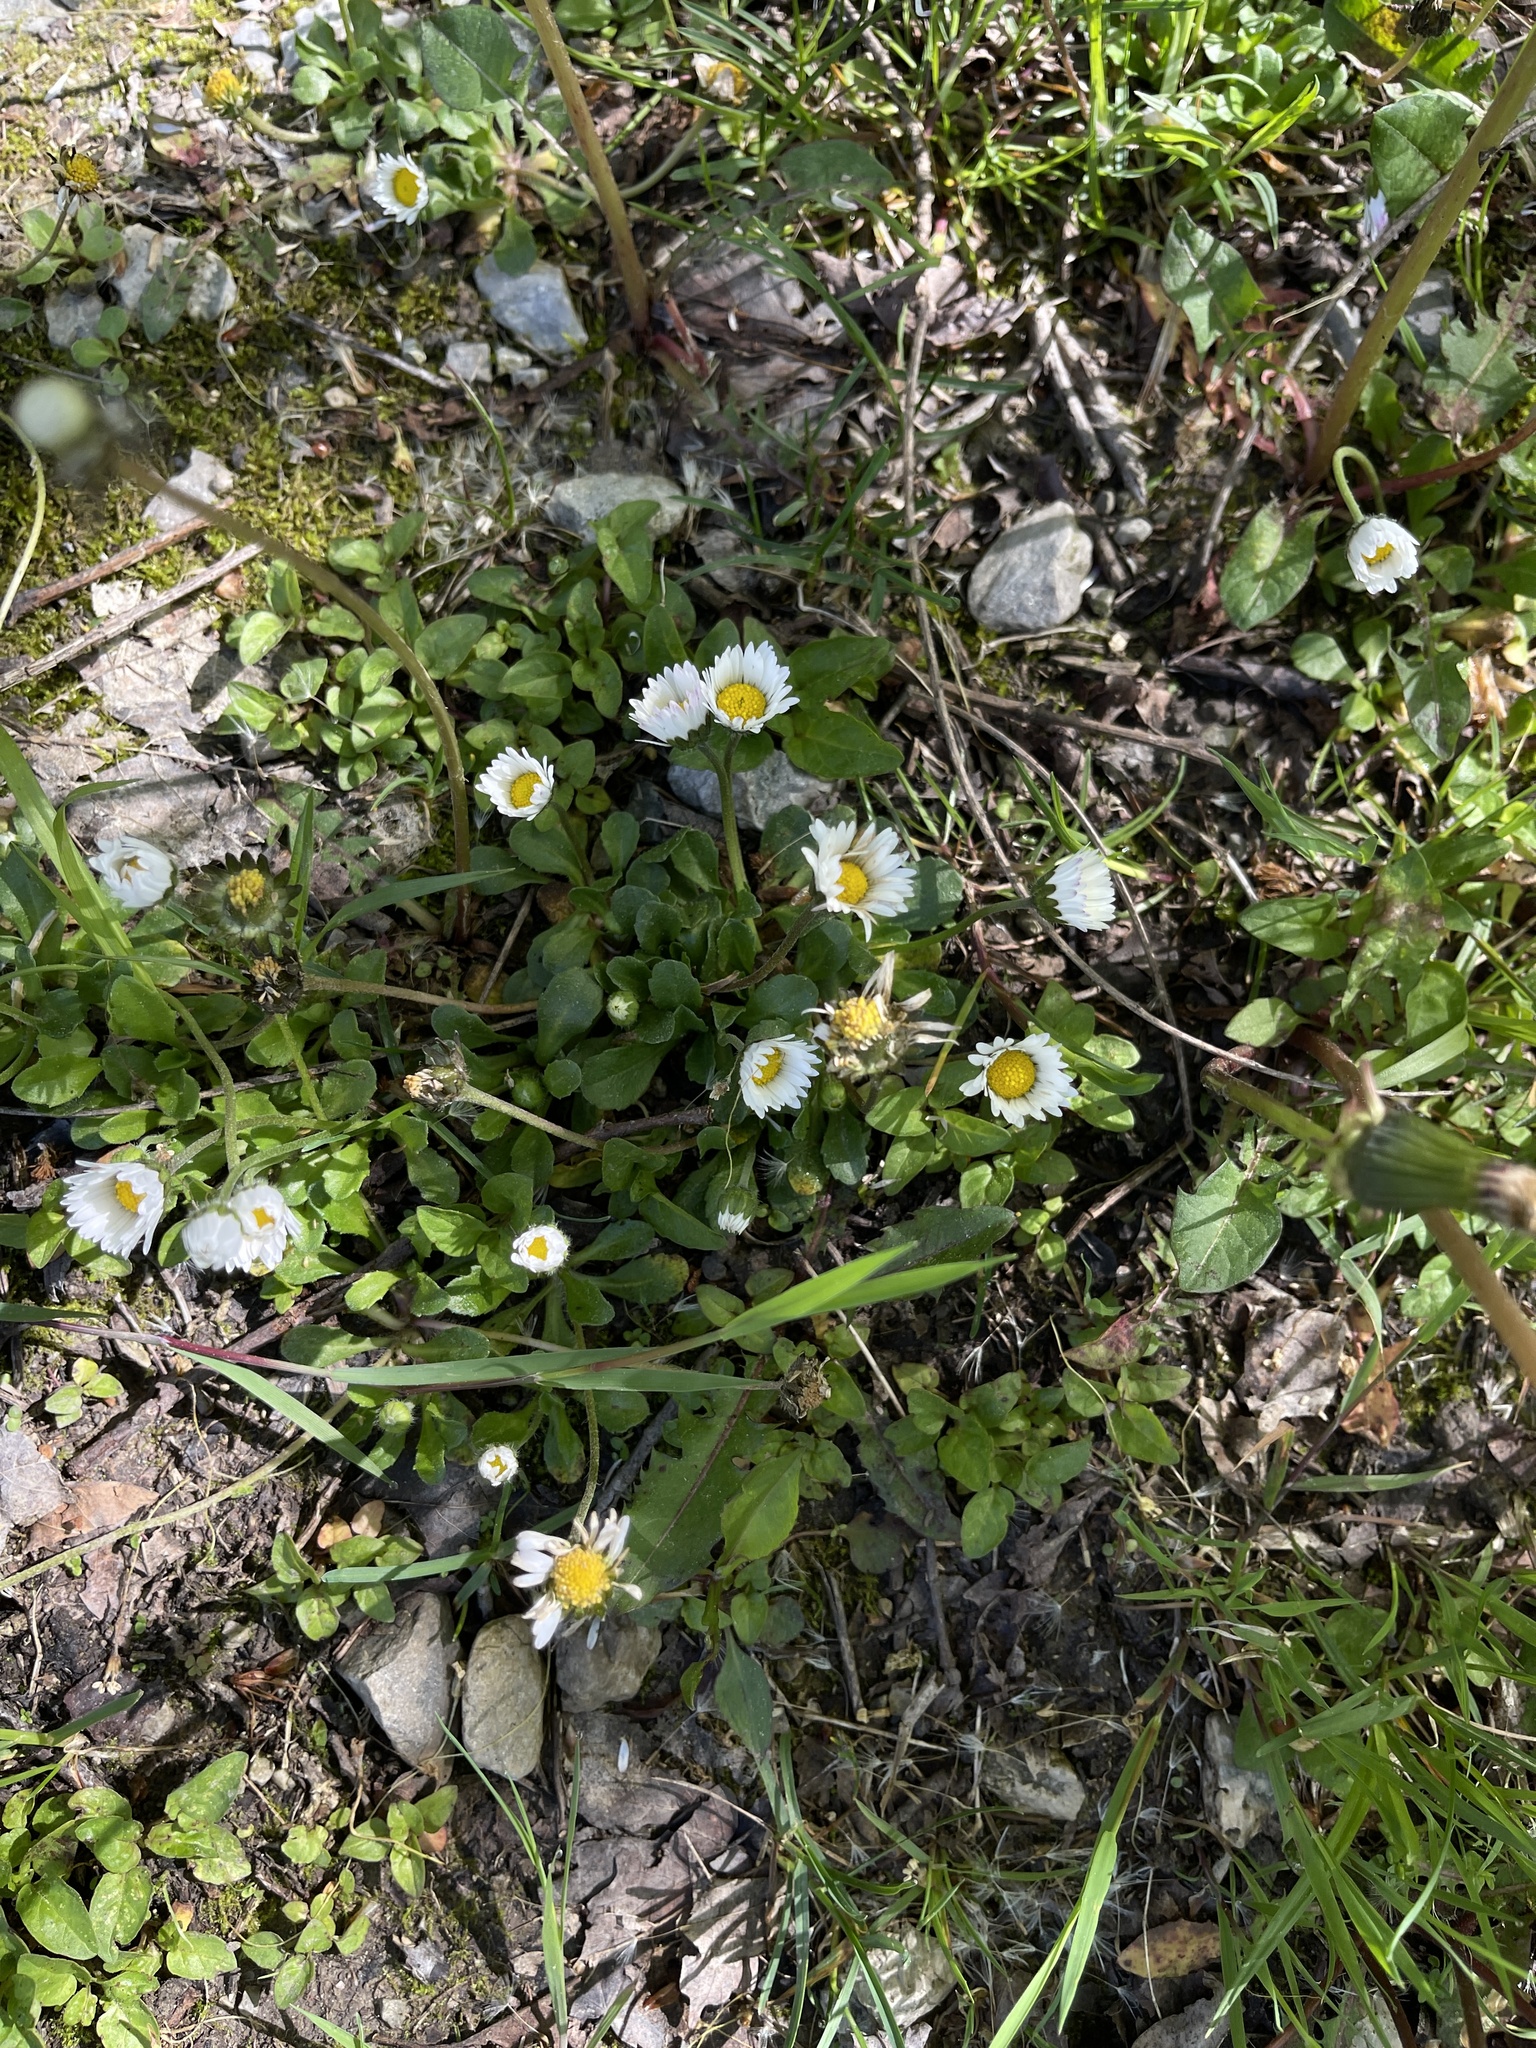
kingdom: Plantae
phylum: Tracheophyta
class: Magnoliopsida
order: Asterales
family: Asteraceae
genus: Bellis
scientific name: Bellis perennis
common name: Lawndaisy
